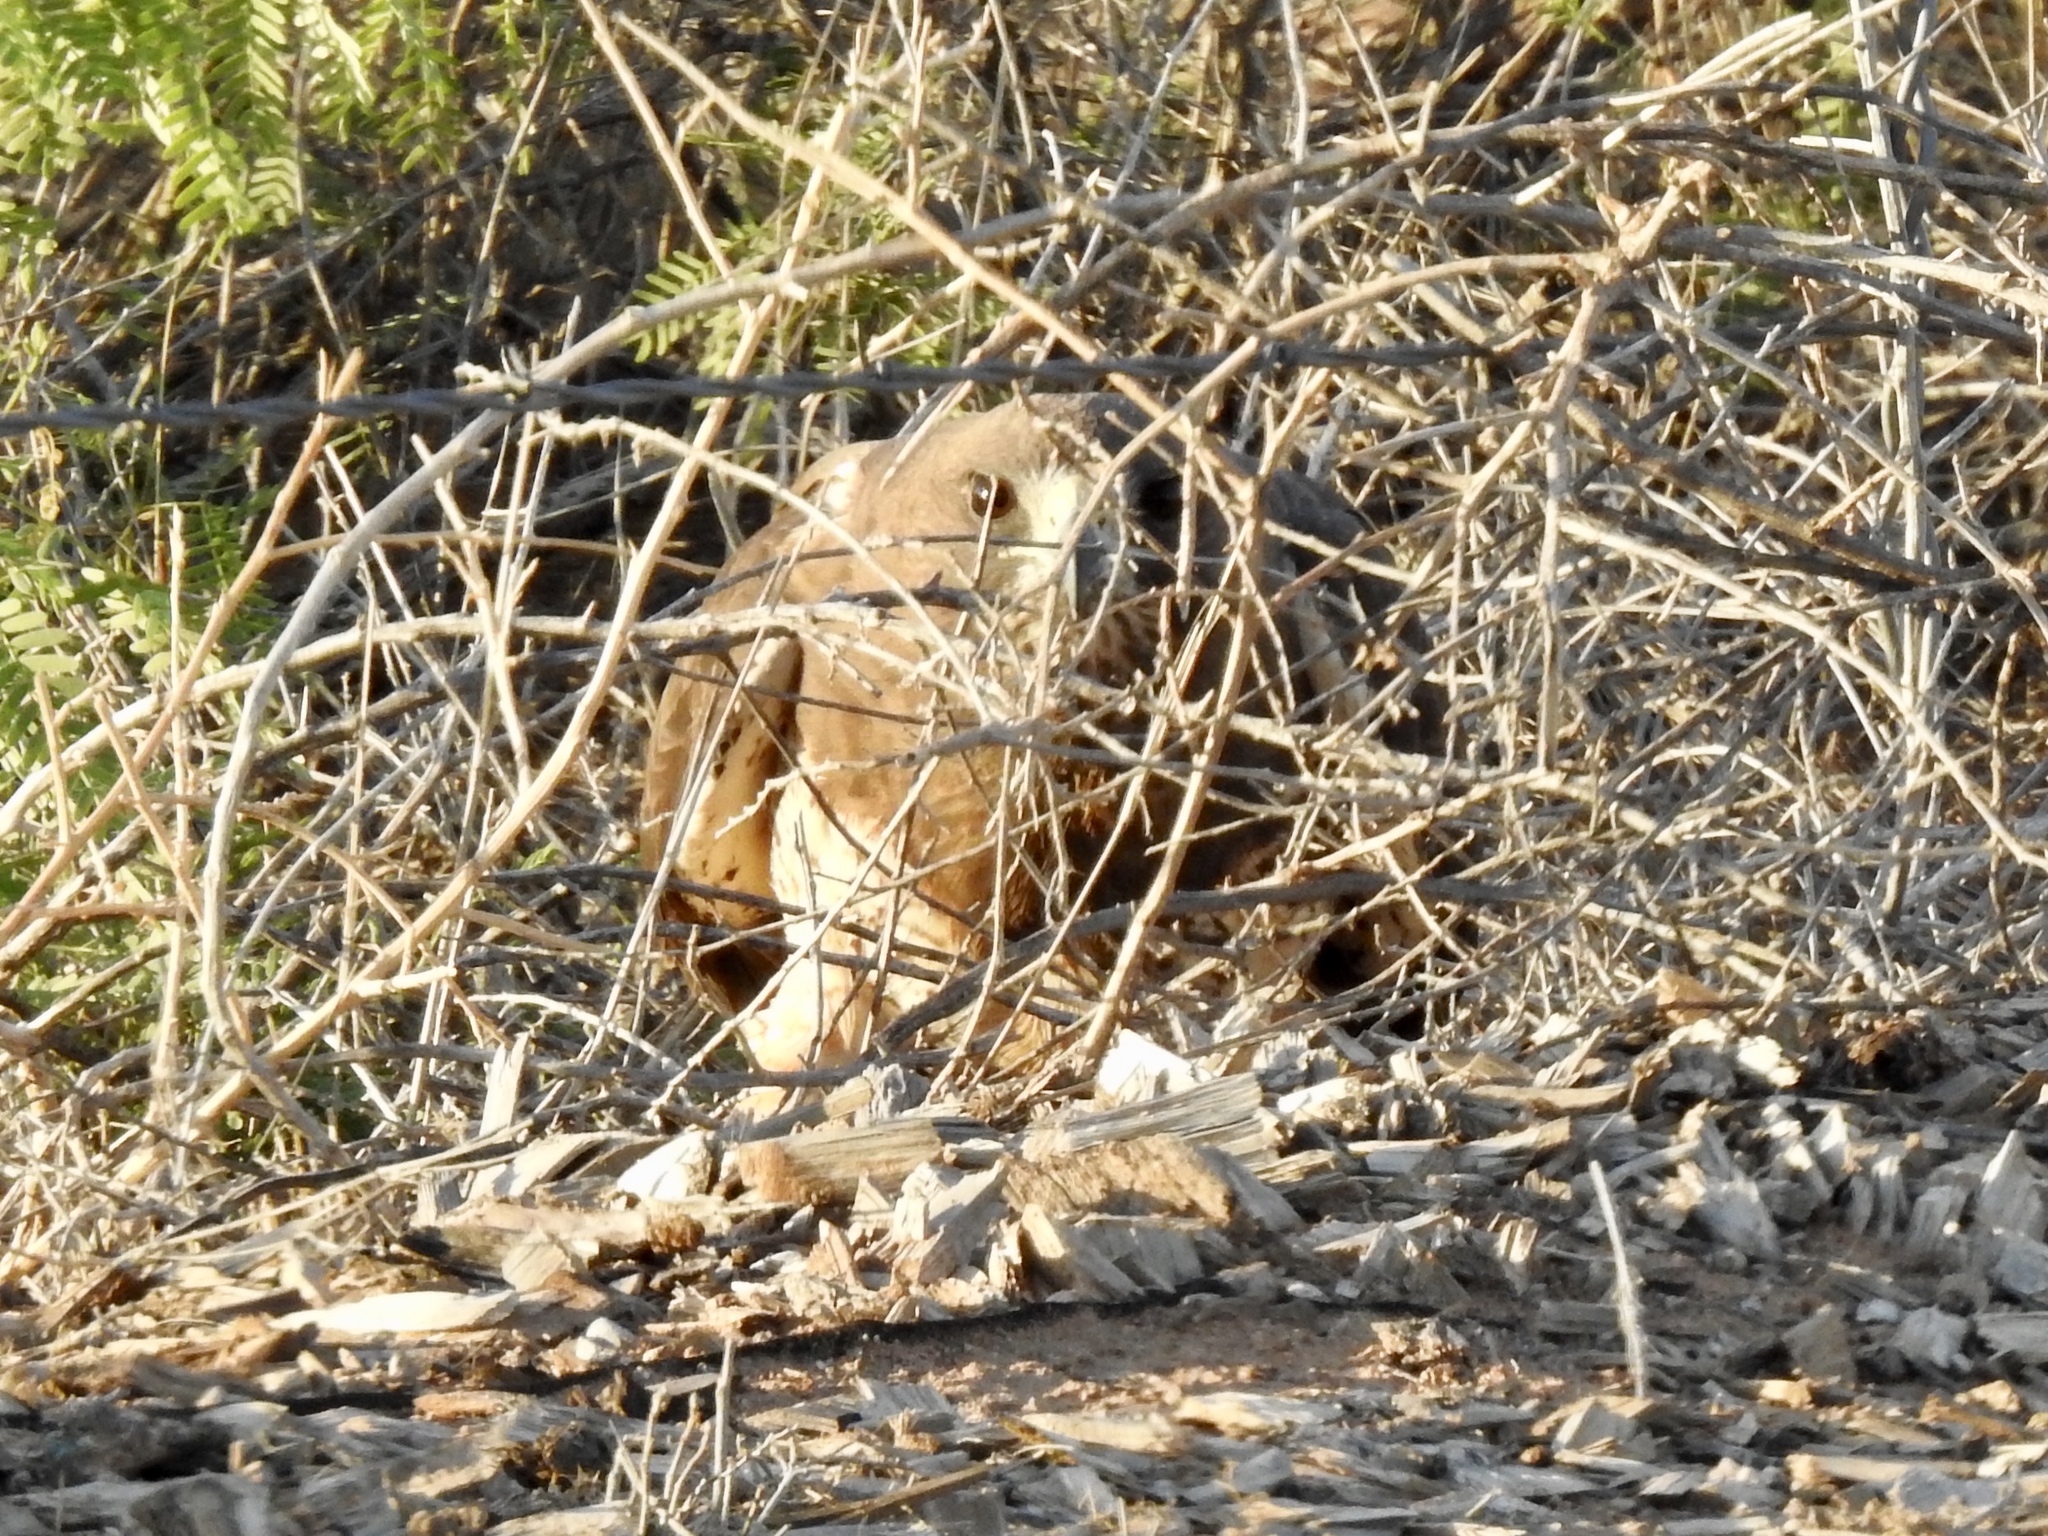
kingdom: Animalia
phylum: Chordata
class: Aves
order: Accipitriformes
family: Accipitridae
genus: Buteo
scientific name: Buteo swainsoni
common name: Swainson's hawk
